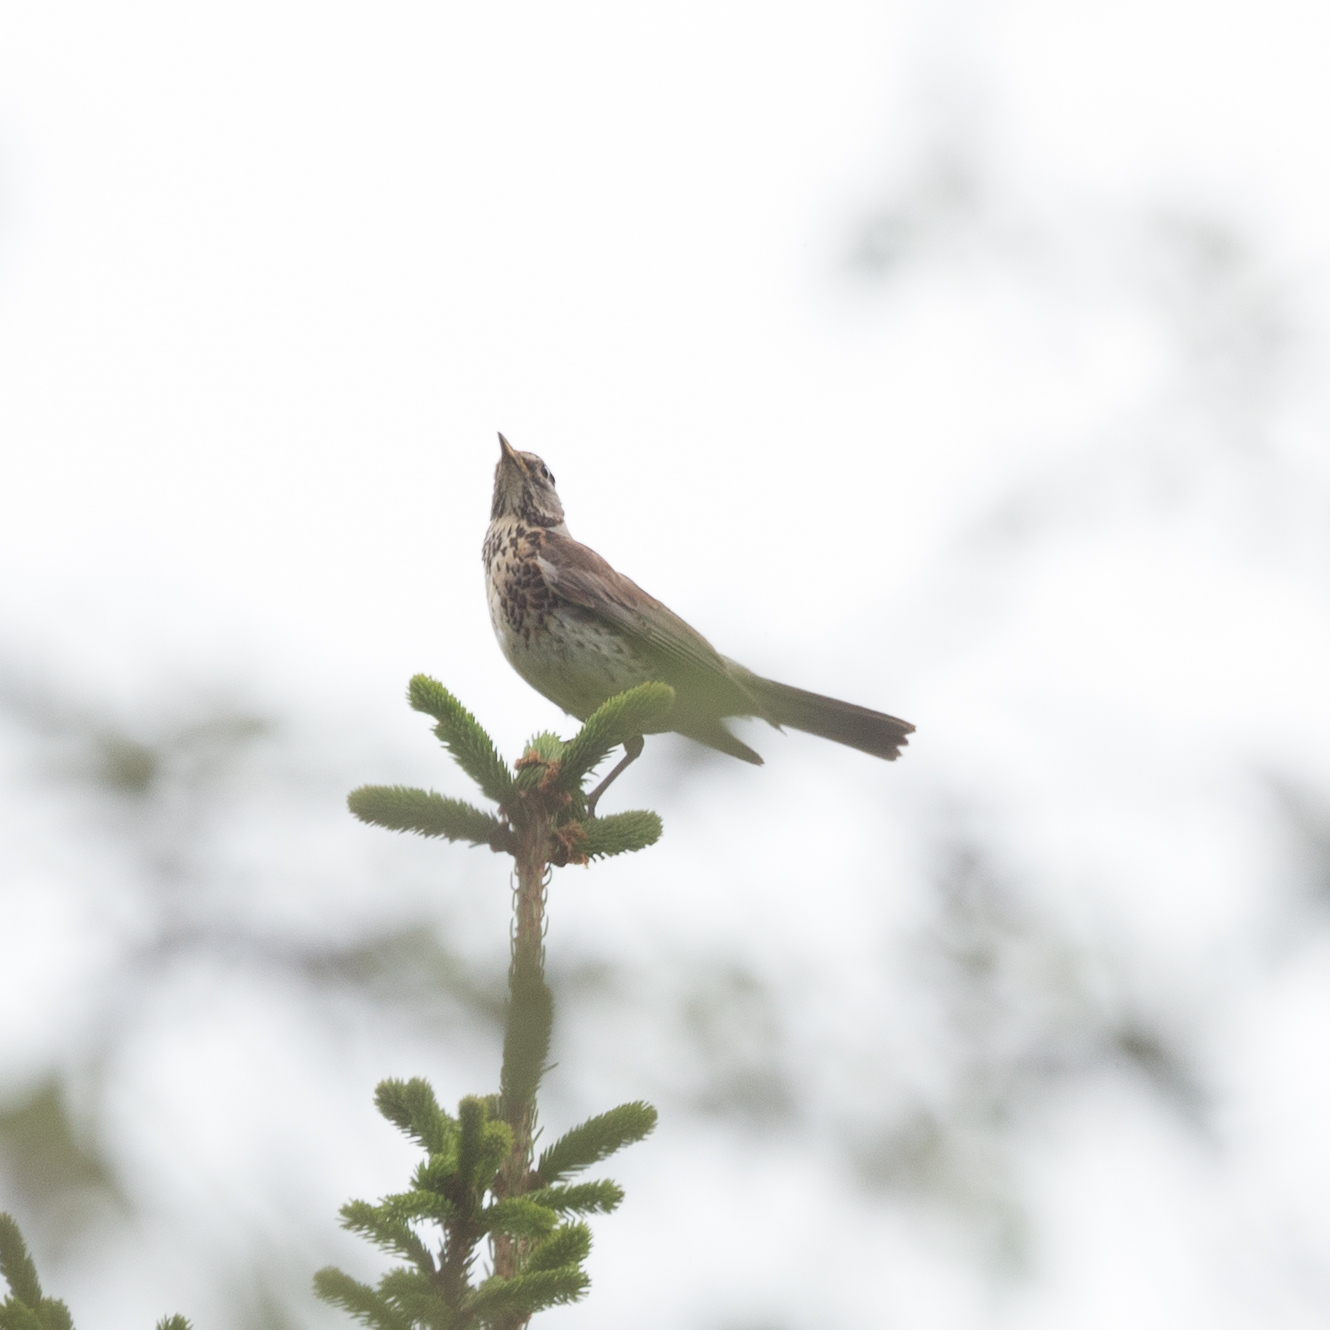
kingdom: Animalia
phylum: Chordata
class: Aves
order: Passeriformes
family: Turdidae
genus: Turdus
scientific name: Turdus pilaris
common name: Fieldfare
